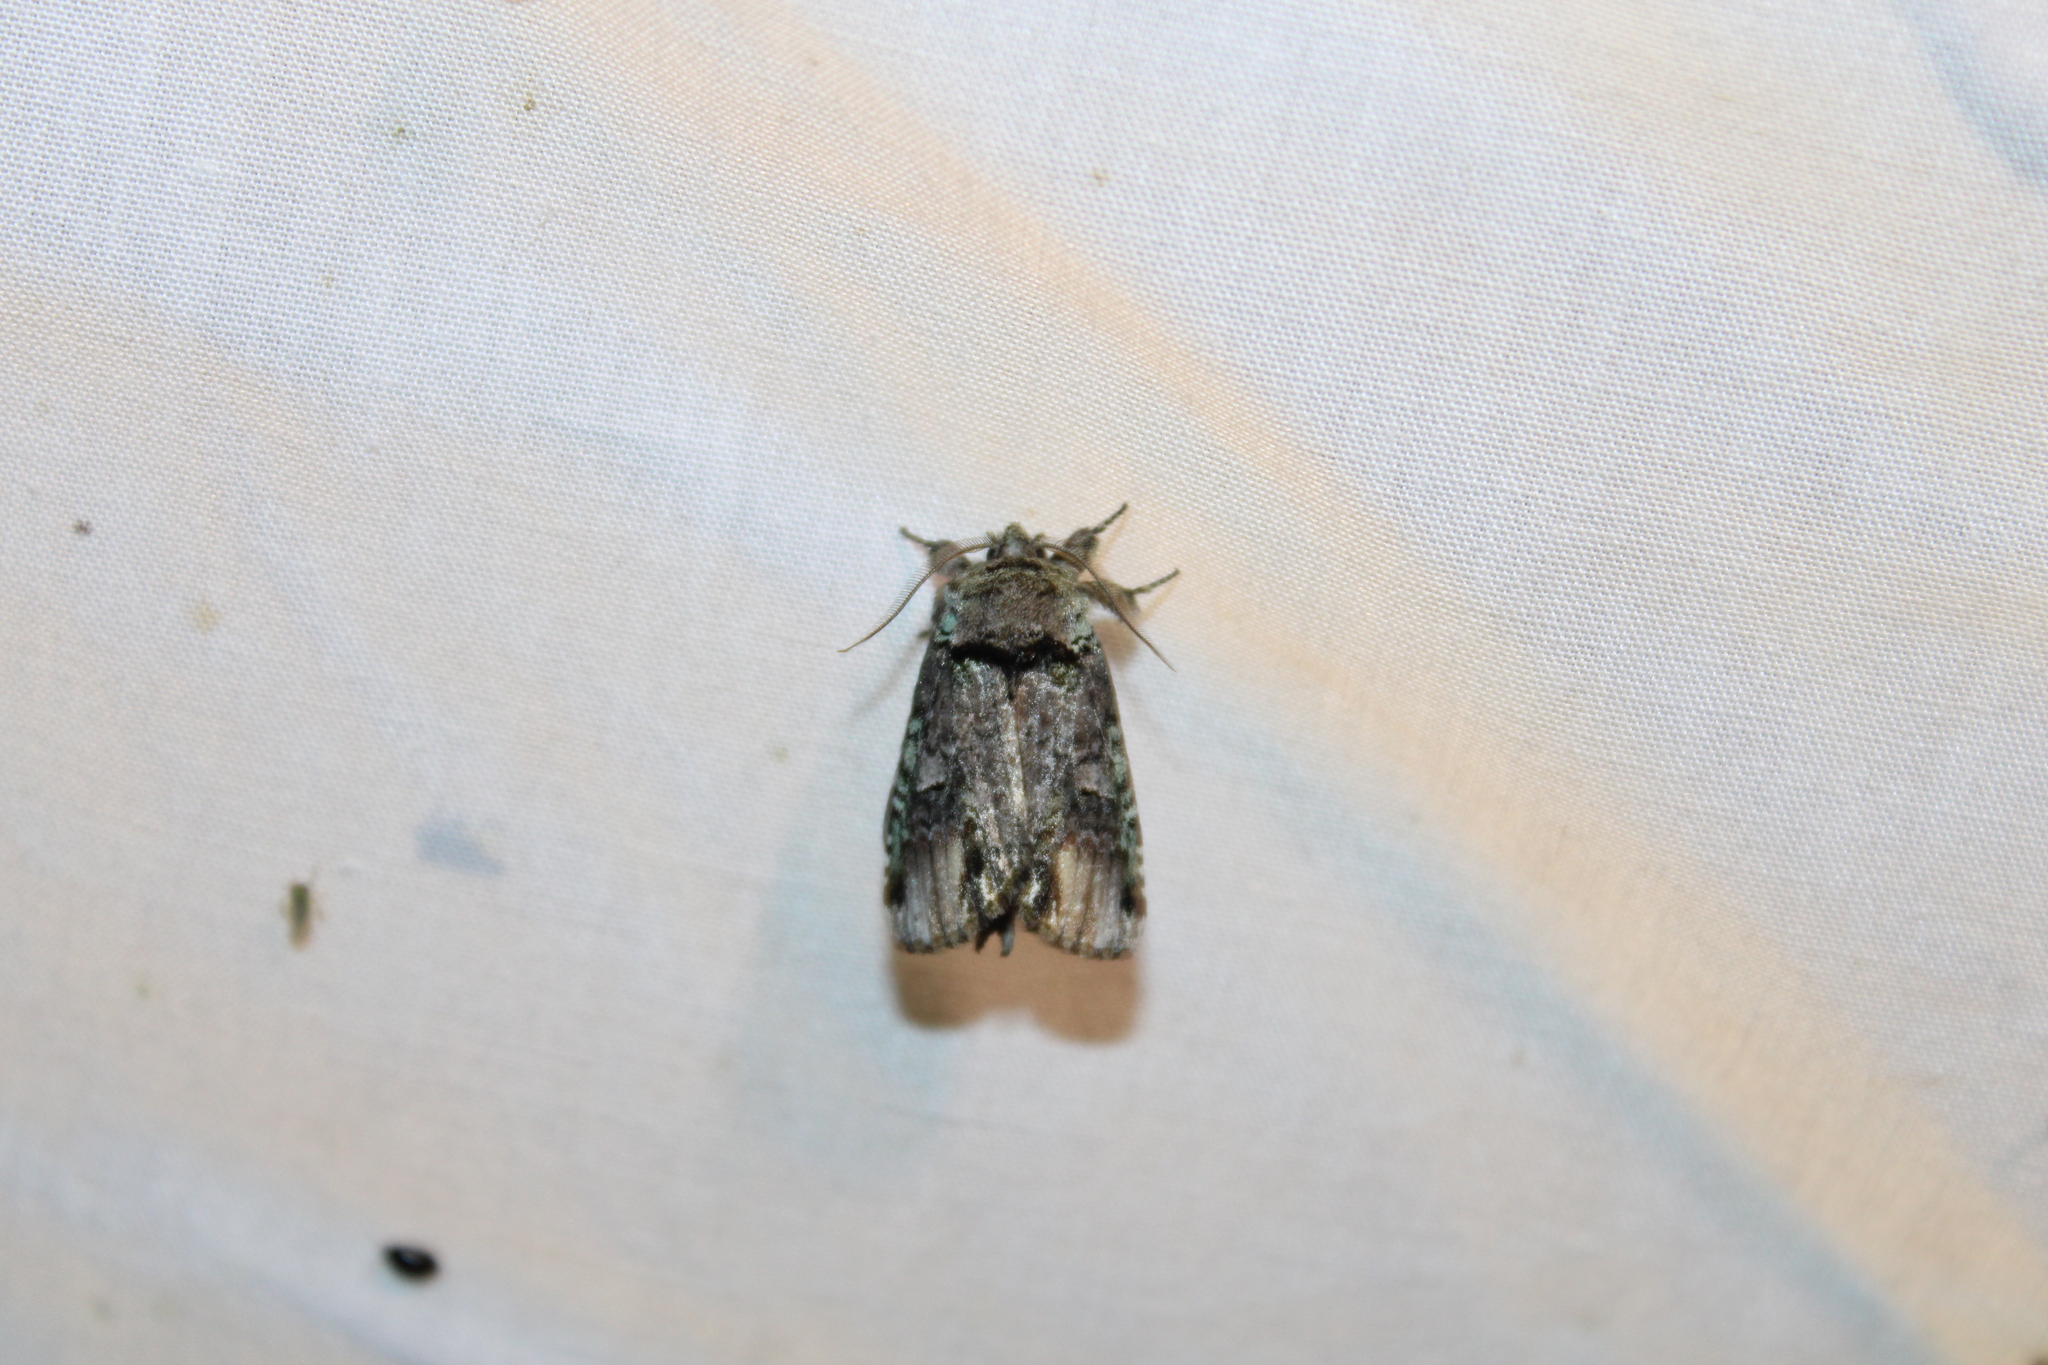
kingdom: Animalia
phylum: Arthropoda
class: Insecta
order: Lepidoptera
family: Notodontidae
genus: Schizura
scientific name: Schizura
